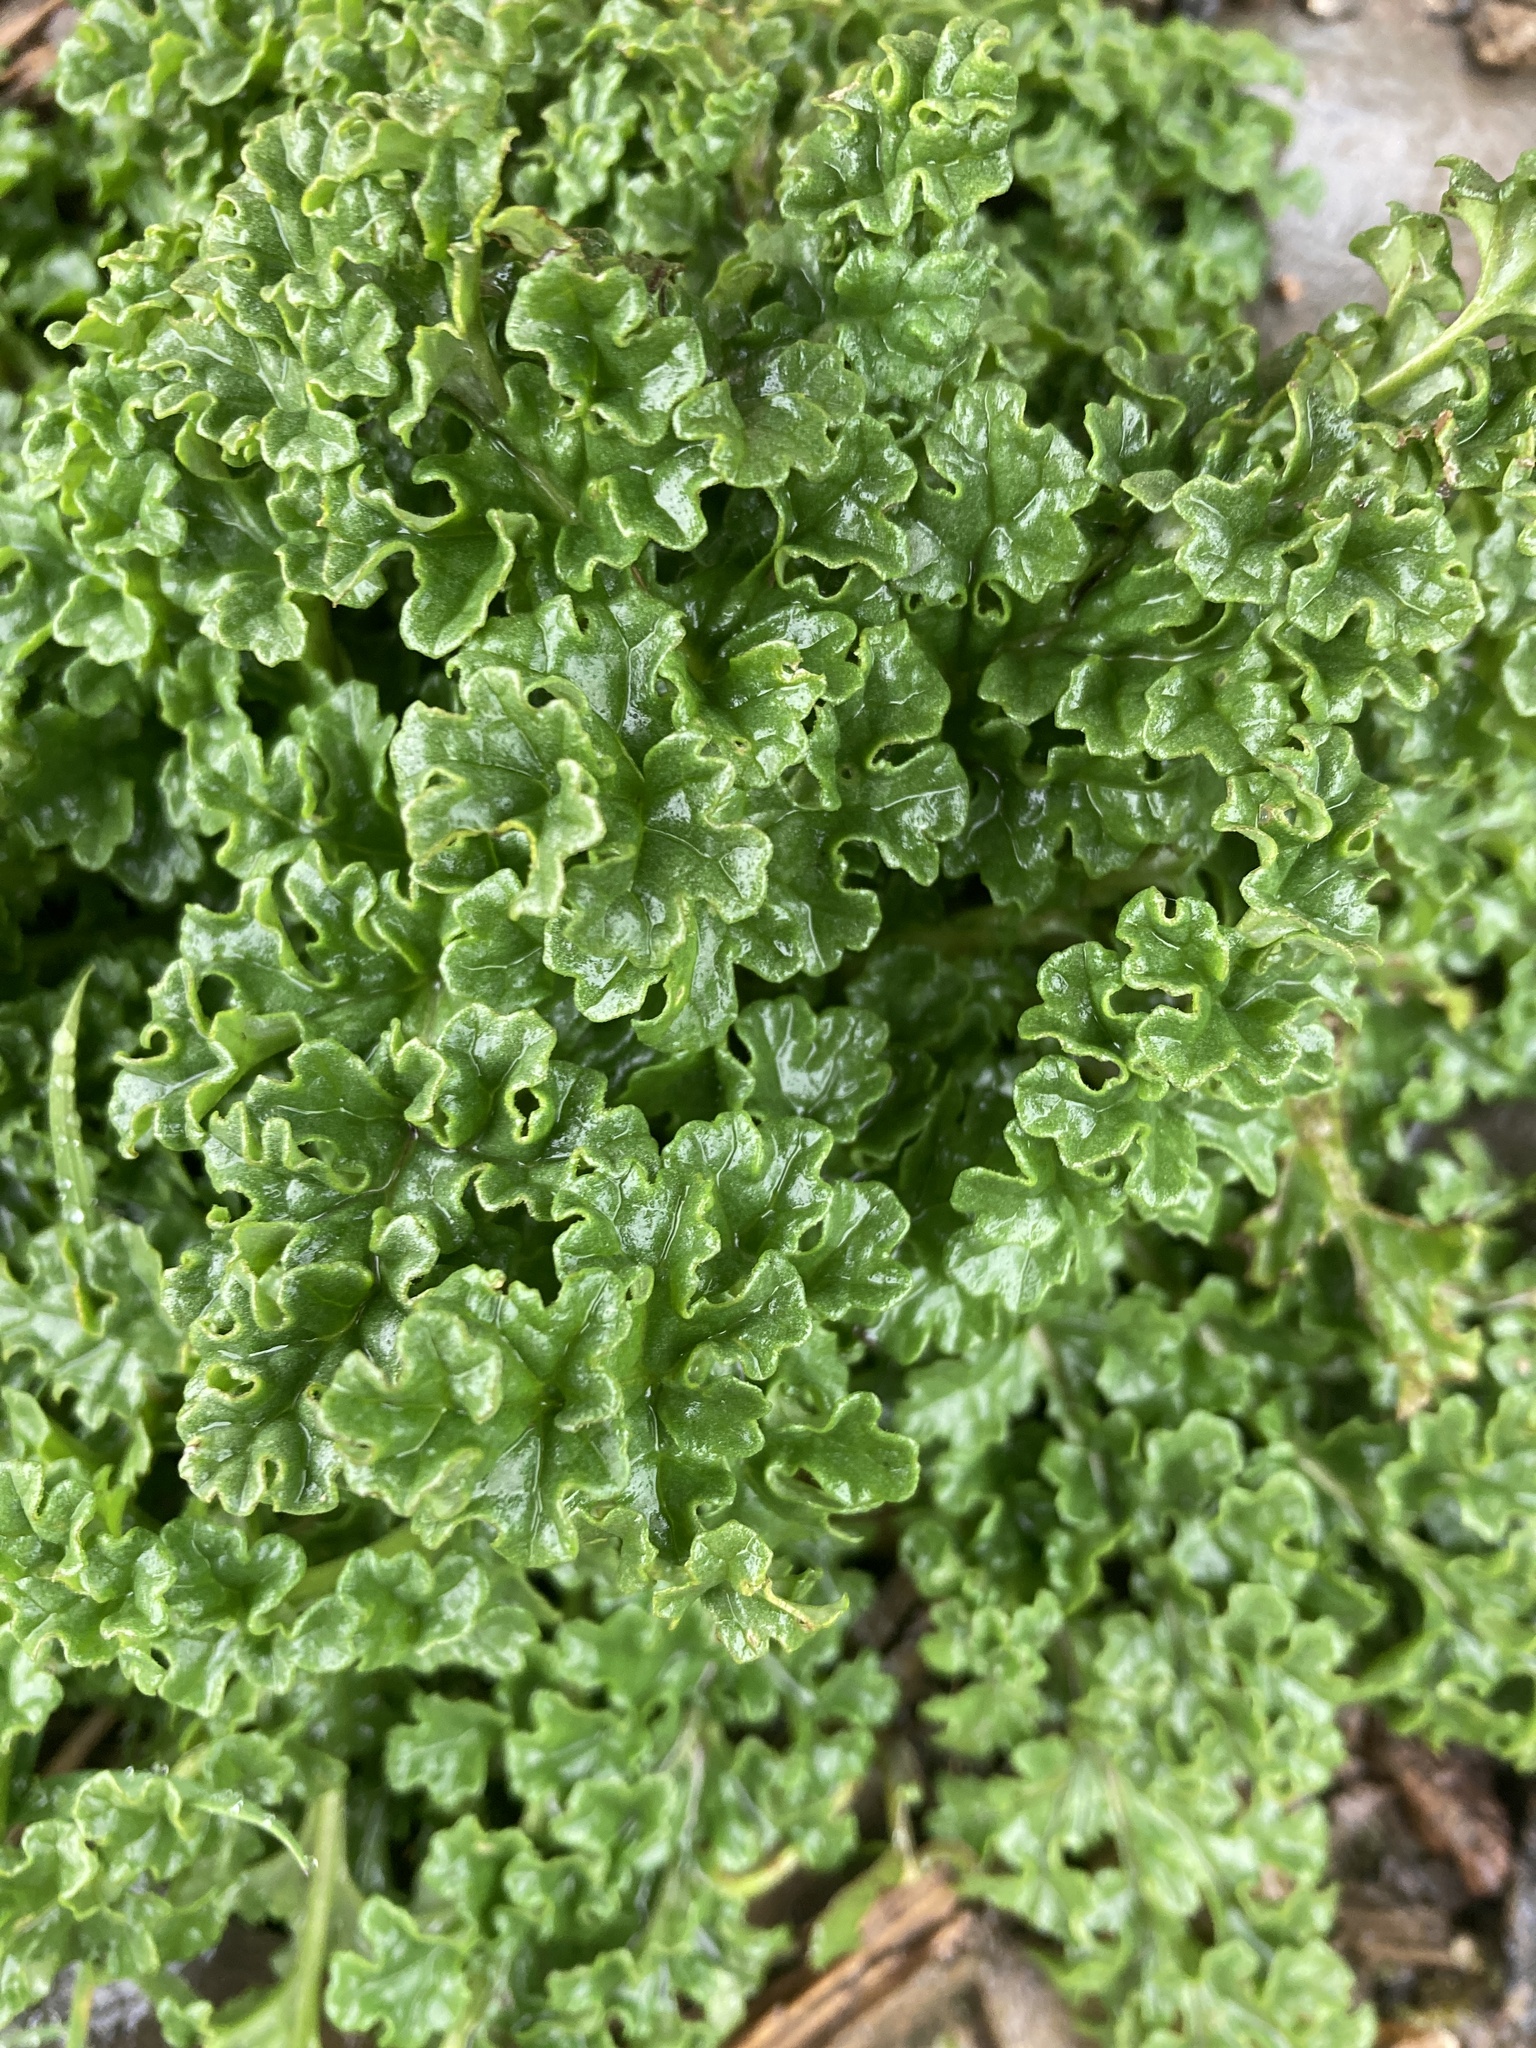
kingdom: Plantae
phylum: Tracheophyta
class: Magnoliopsida
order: Asterales
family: Asteraceae
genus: Jacobaea
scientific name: Jacobaea vulgaris
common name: Stinking willie
